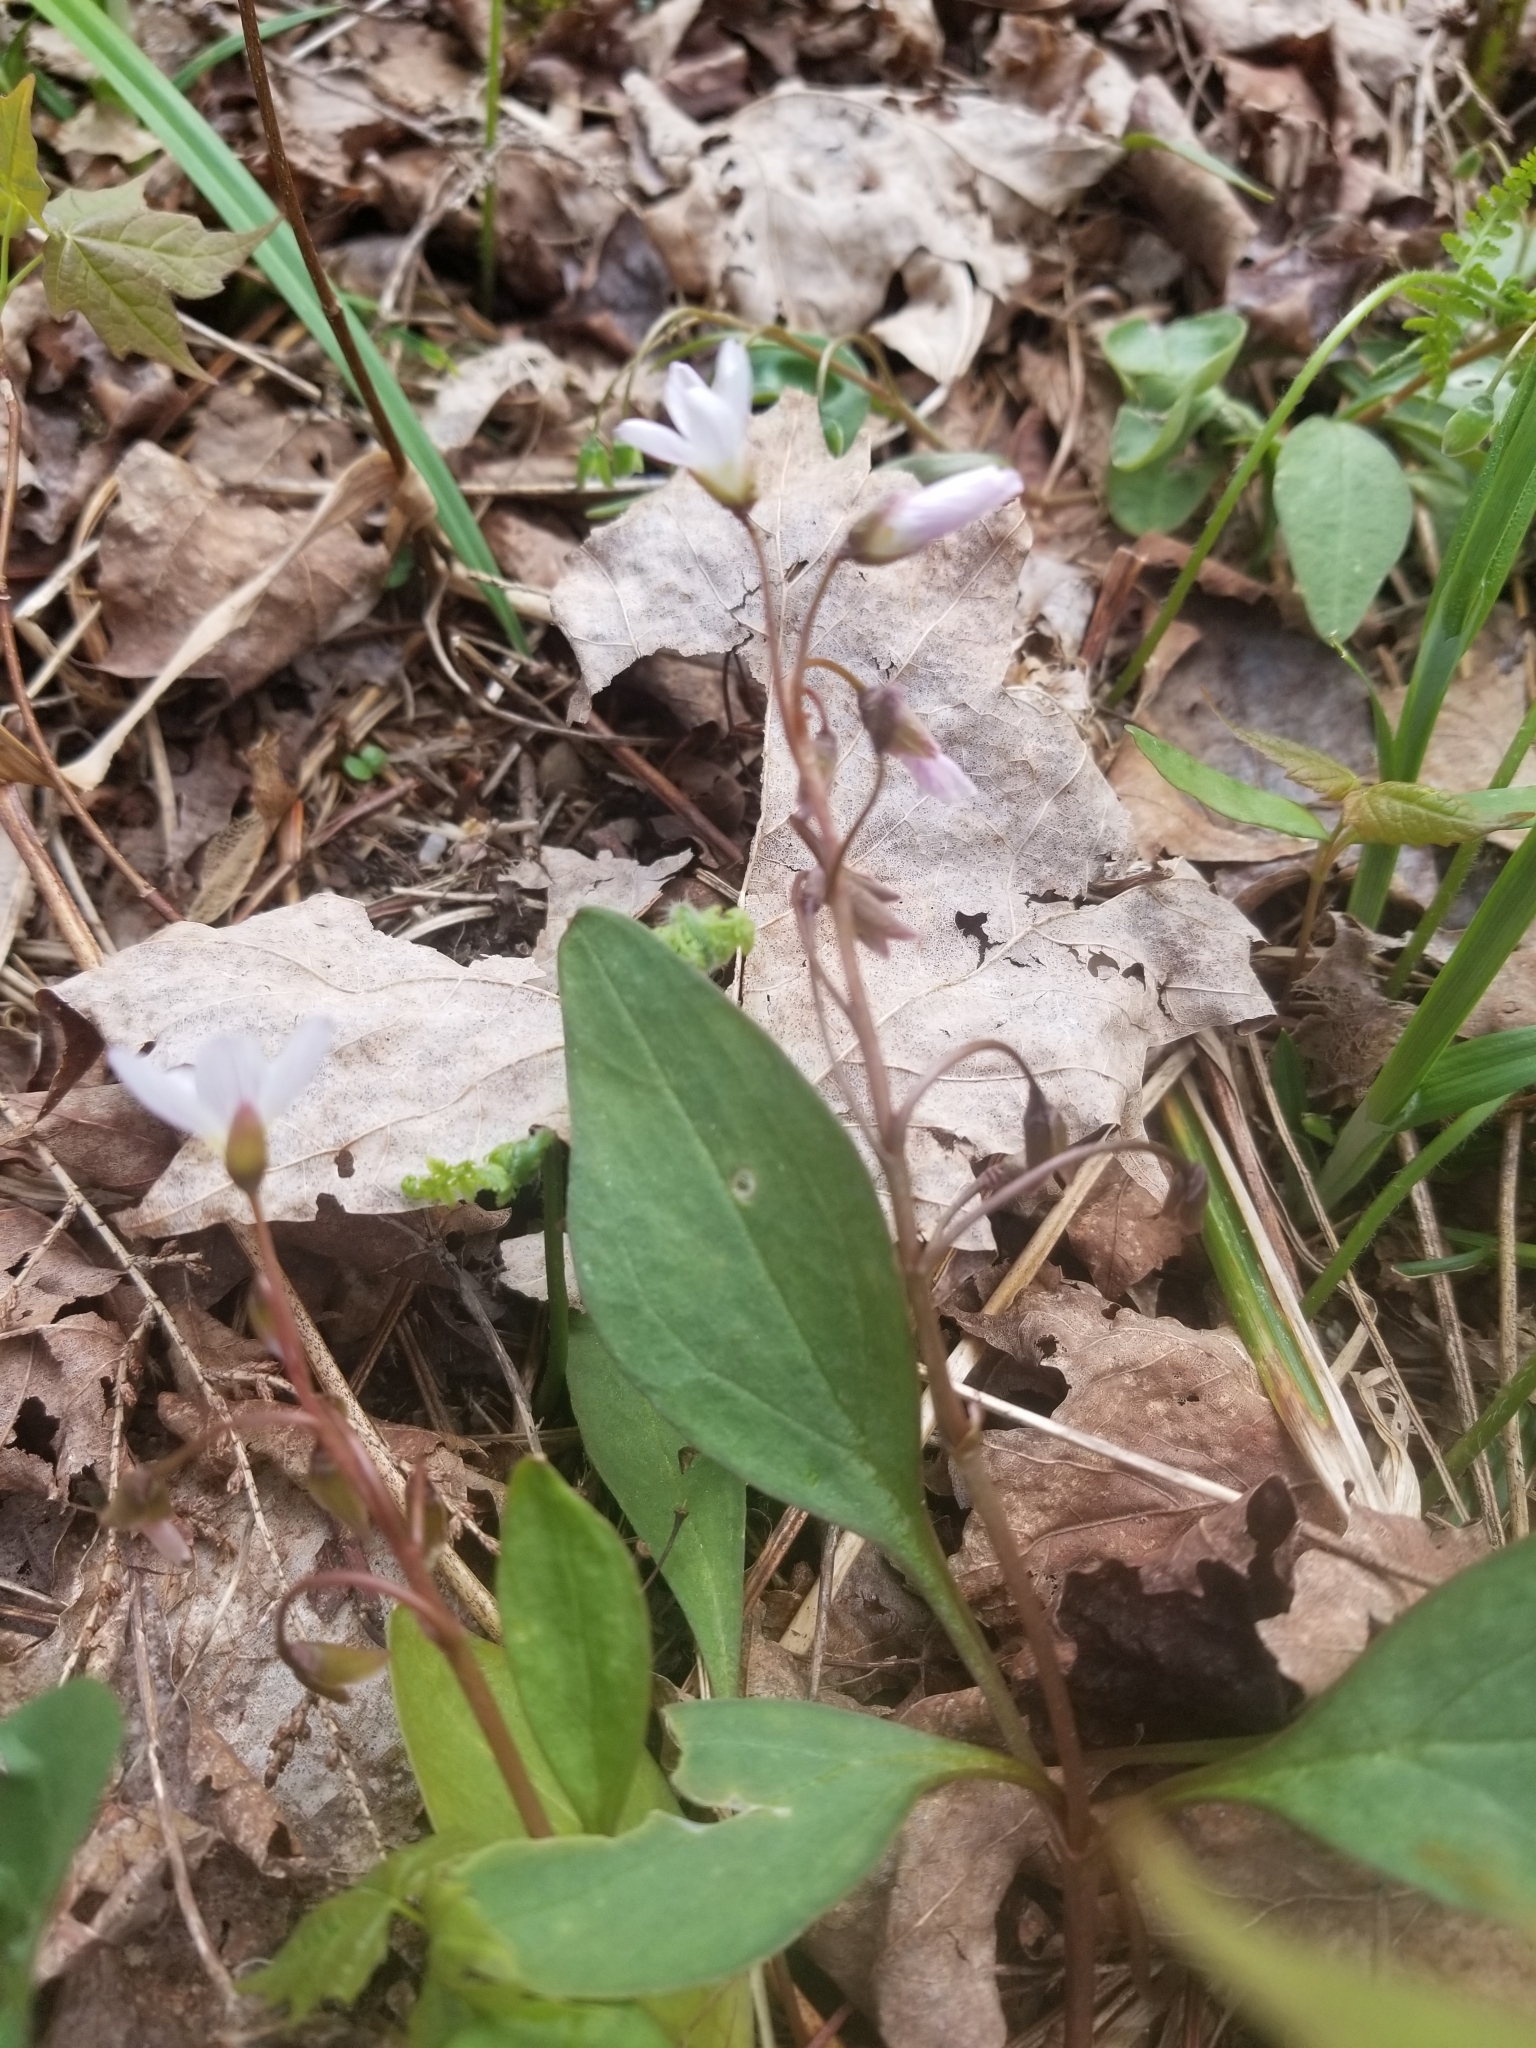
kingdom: Plantae
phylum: Tracheophyta
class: Magnoliopsida
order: Caryophyllales
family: Montiaceae
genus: Claytonia
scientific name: Claytonia caroliniana
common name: Carolina spring beauty
